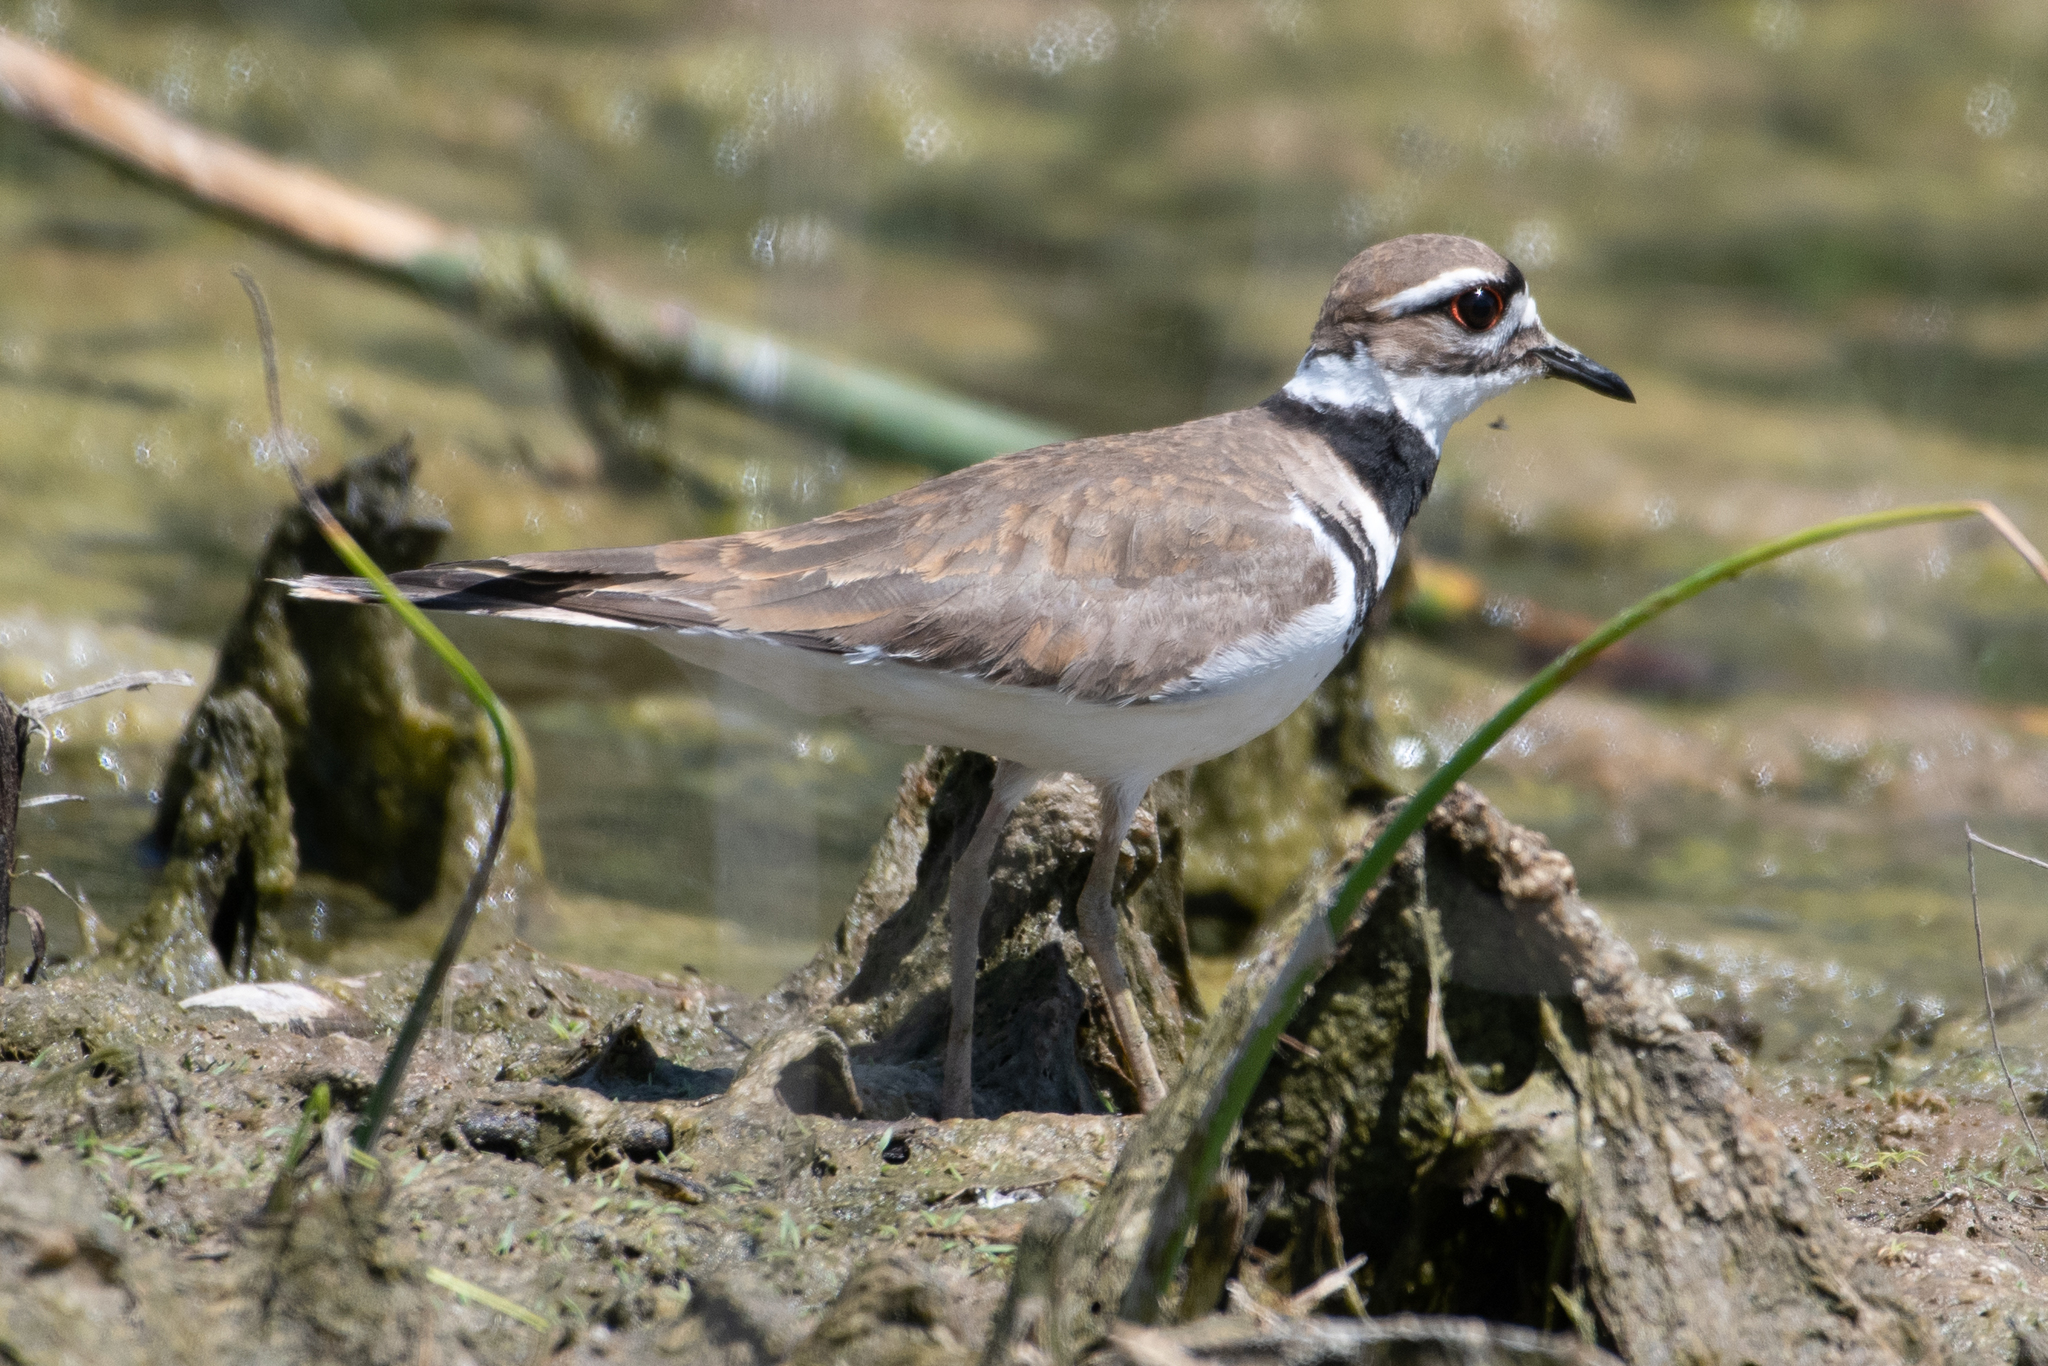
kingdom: Animalia
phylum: Chordata
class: Aves
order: Charadriiformes
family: Charadriidae
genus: Charadrius
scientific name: Charadrius vociferus
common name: Killdeer
